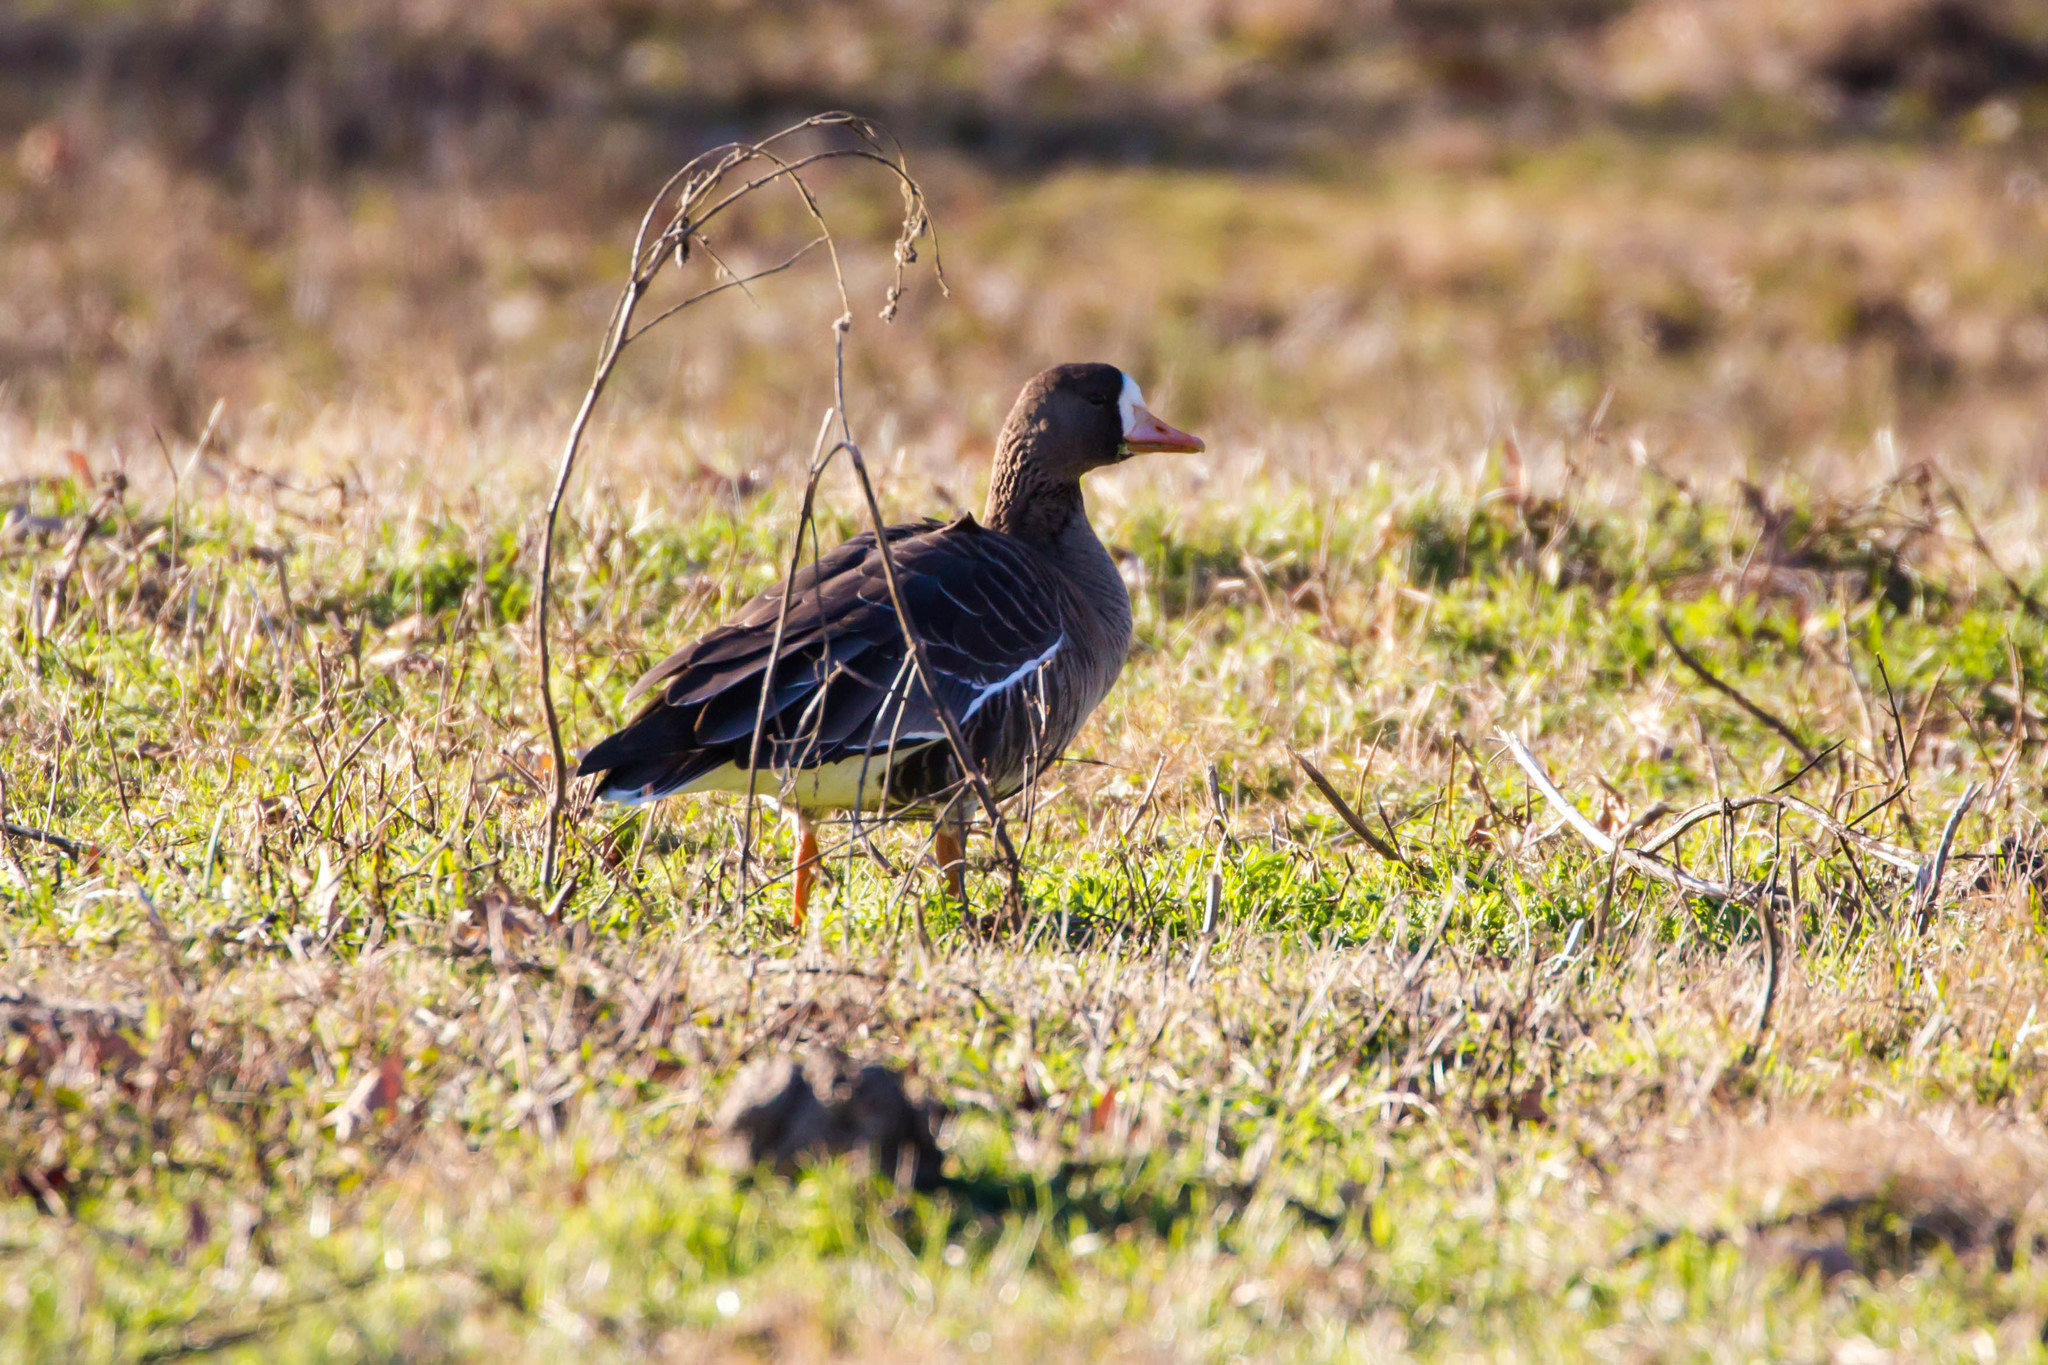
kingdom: Animalia
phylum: Chordata
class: Aves
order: Anseriformes
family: Anatidae
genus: Anser
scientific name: Anser albifrons
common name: Greater white-fronted goose
